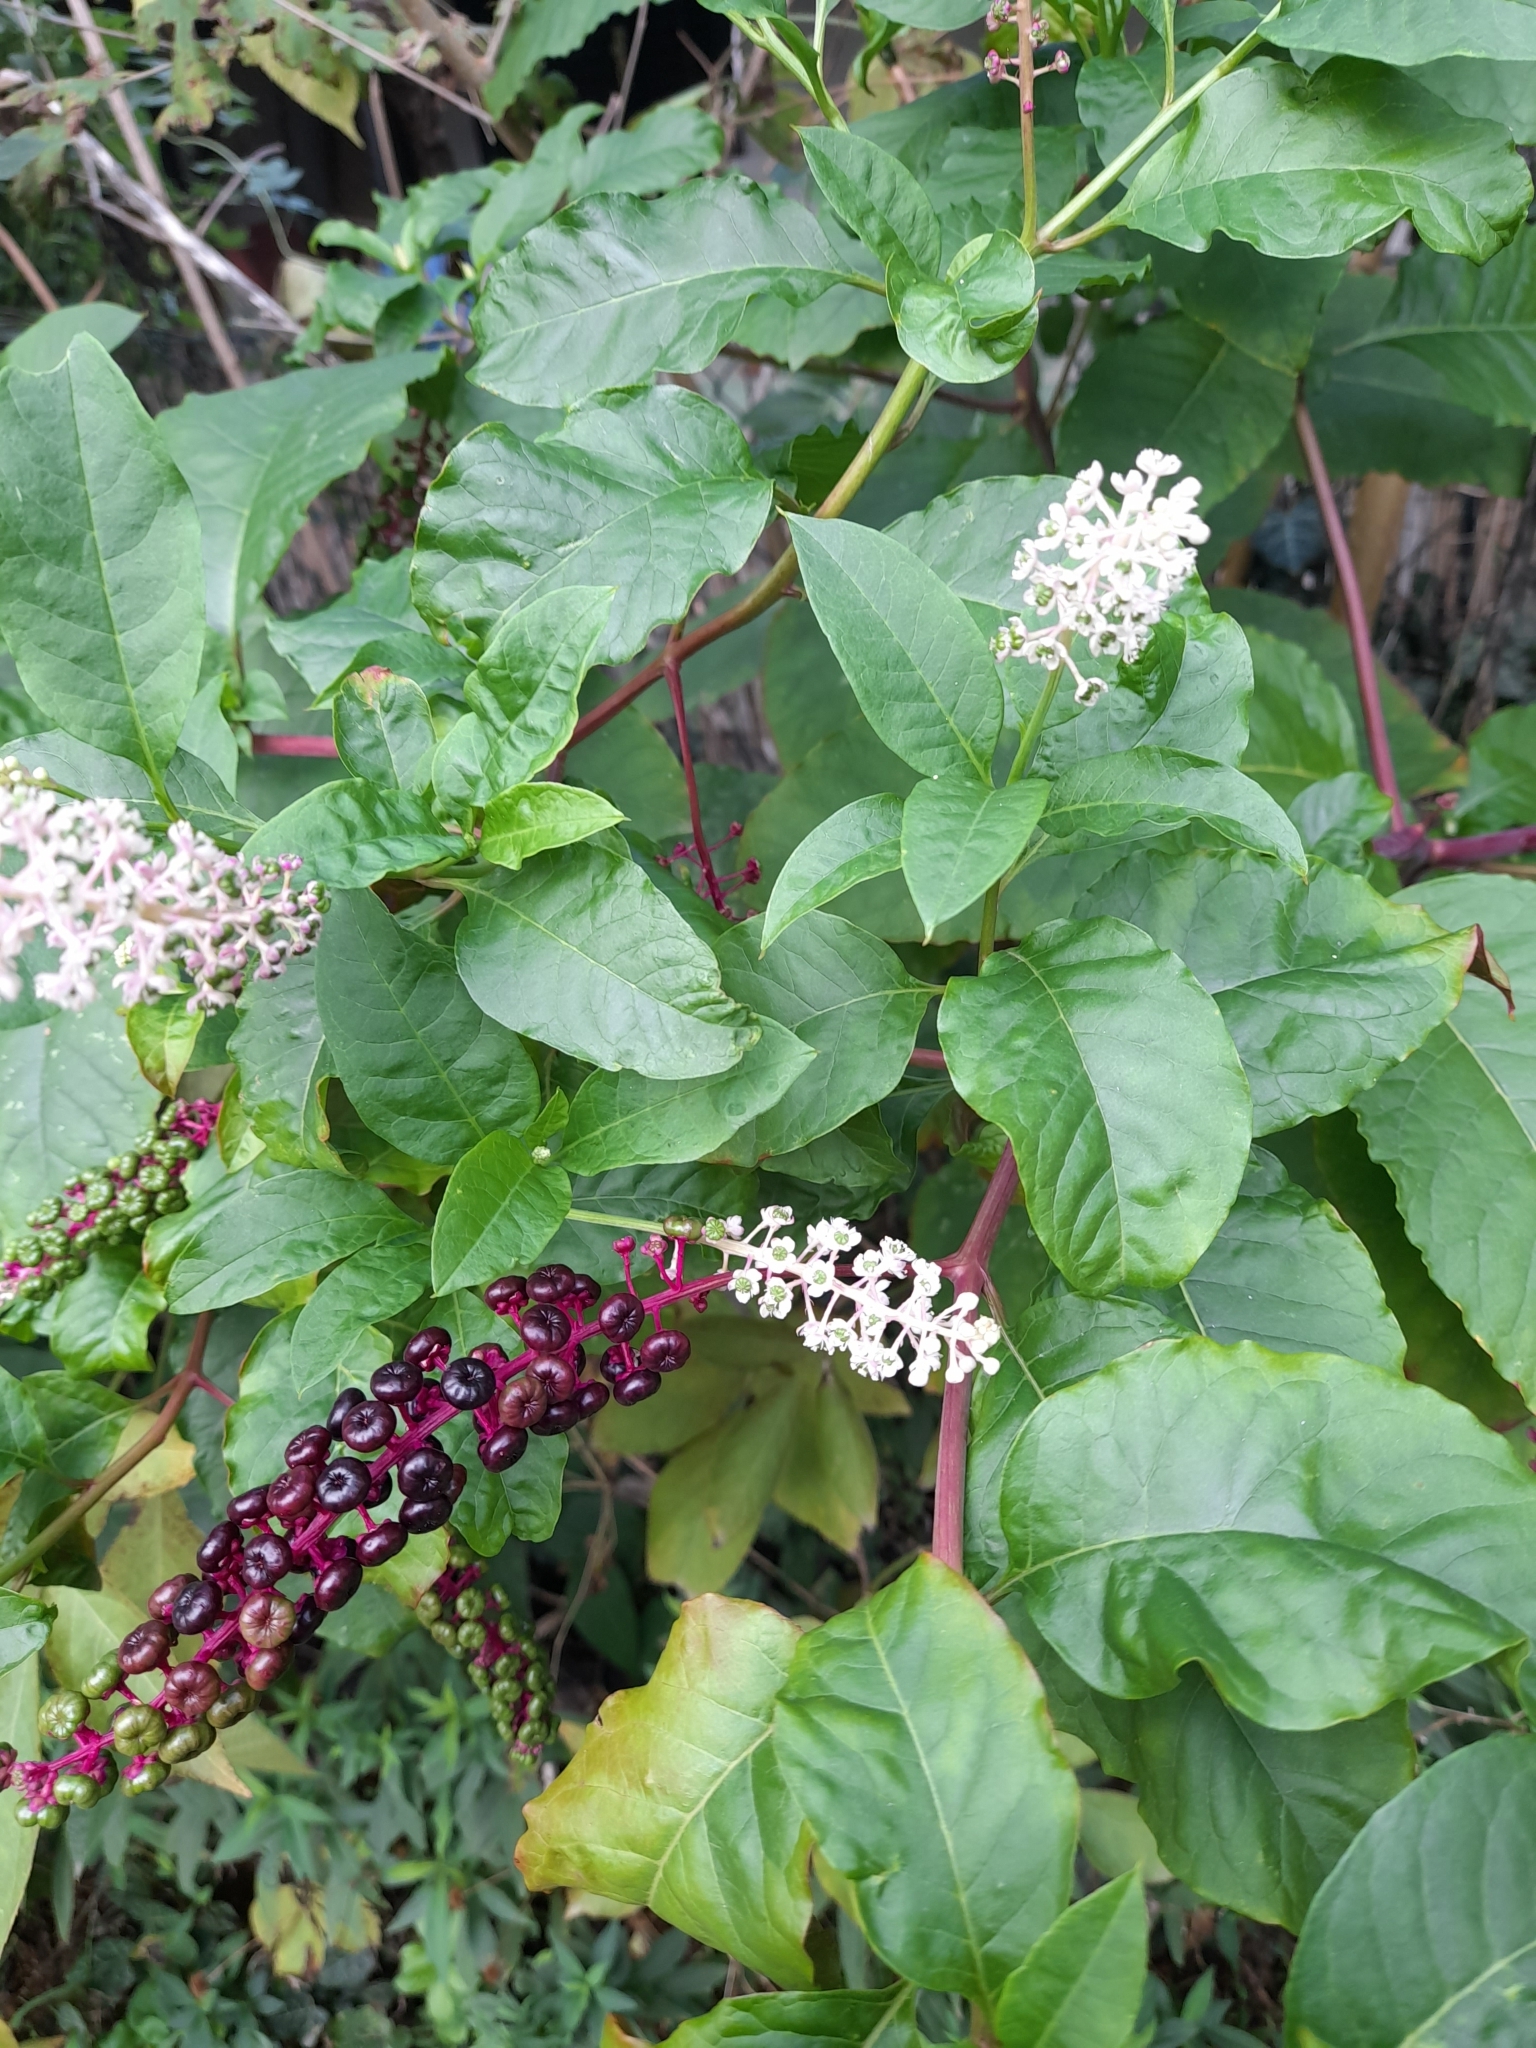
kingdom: Plantae
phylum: Tracheophyta
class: Magnoliopsida
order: Caryophyllales
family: Phytolaccaceae
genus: Phytolacca
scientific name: Phytolacca americana
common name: American pokeweed
